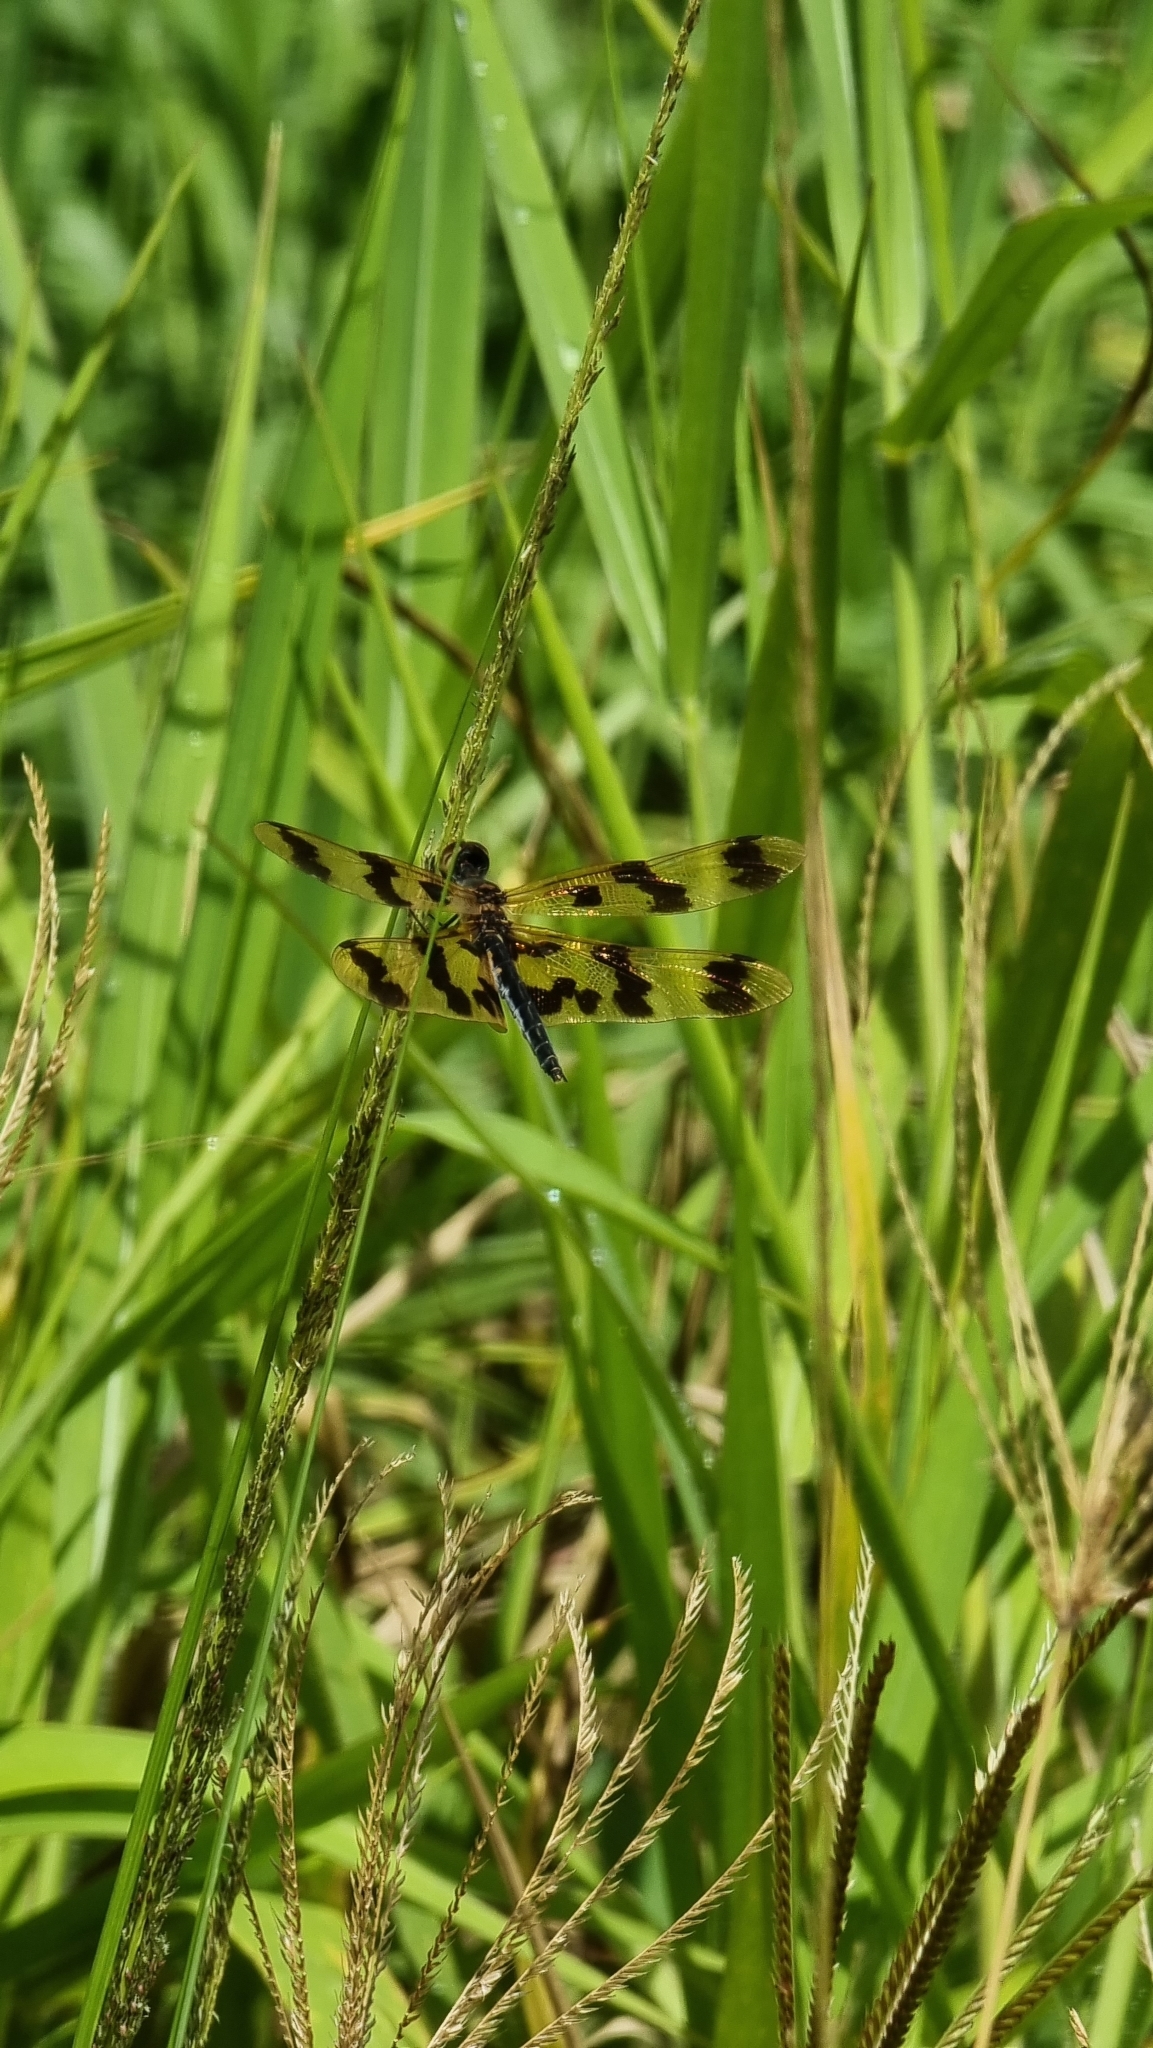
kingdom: Animalia
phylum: Arthropoda
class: Insecta
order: Odonata
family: Libellulidae
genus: Rhyothemis
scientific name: Rhyothemis graphiptera
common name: Graphic flutterer
